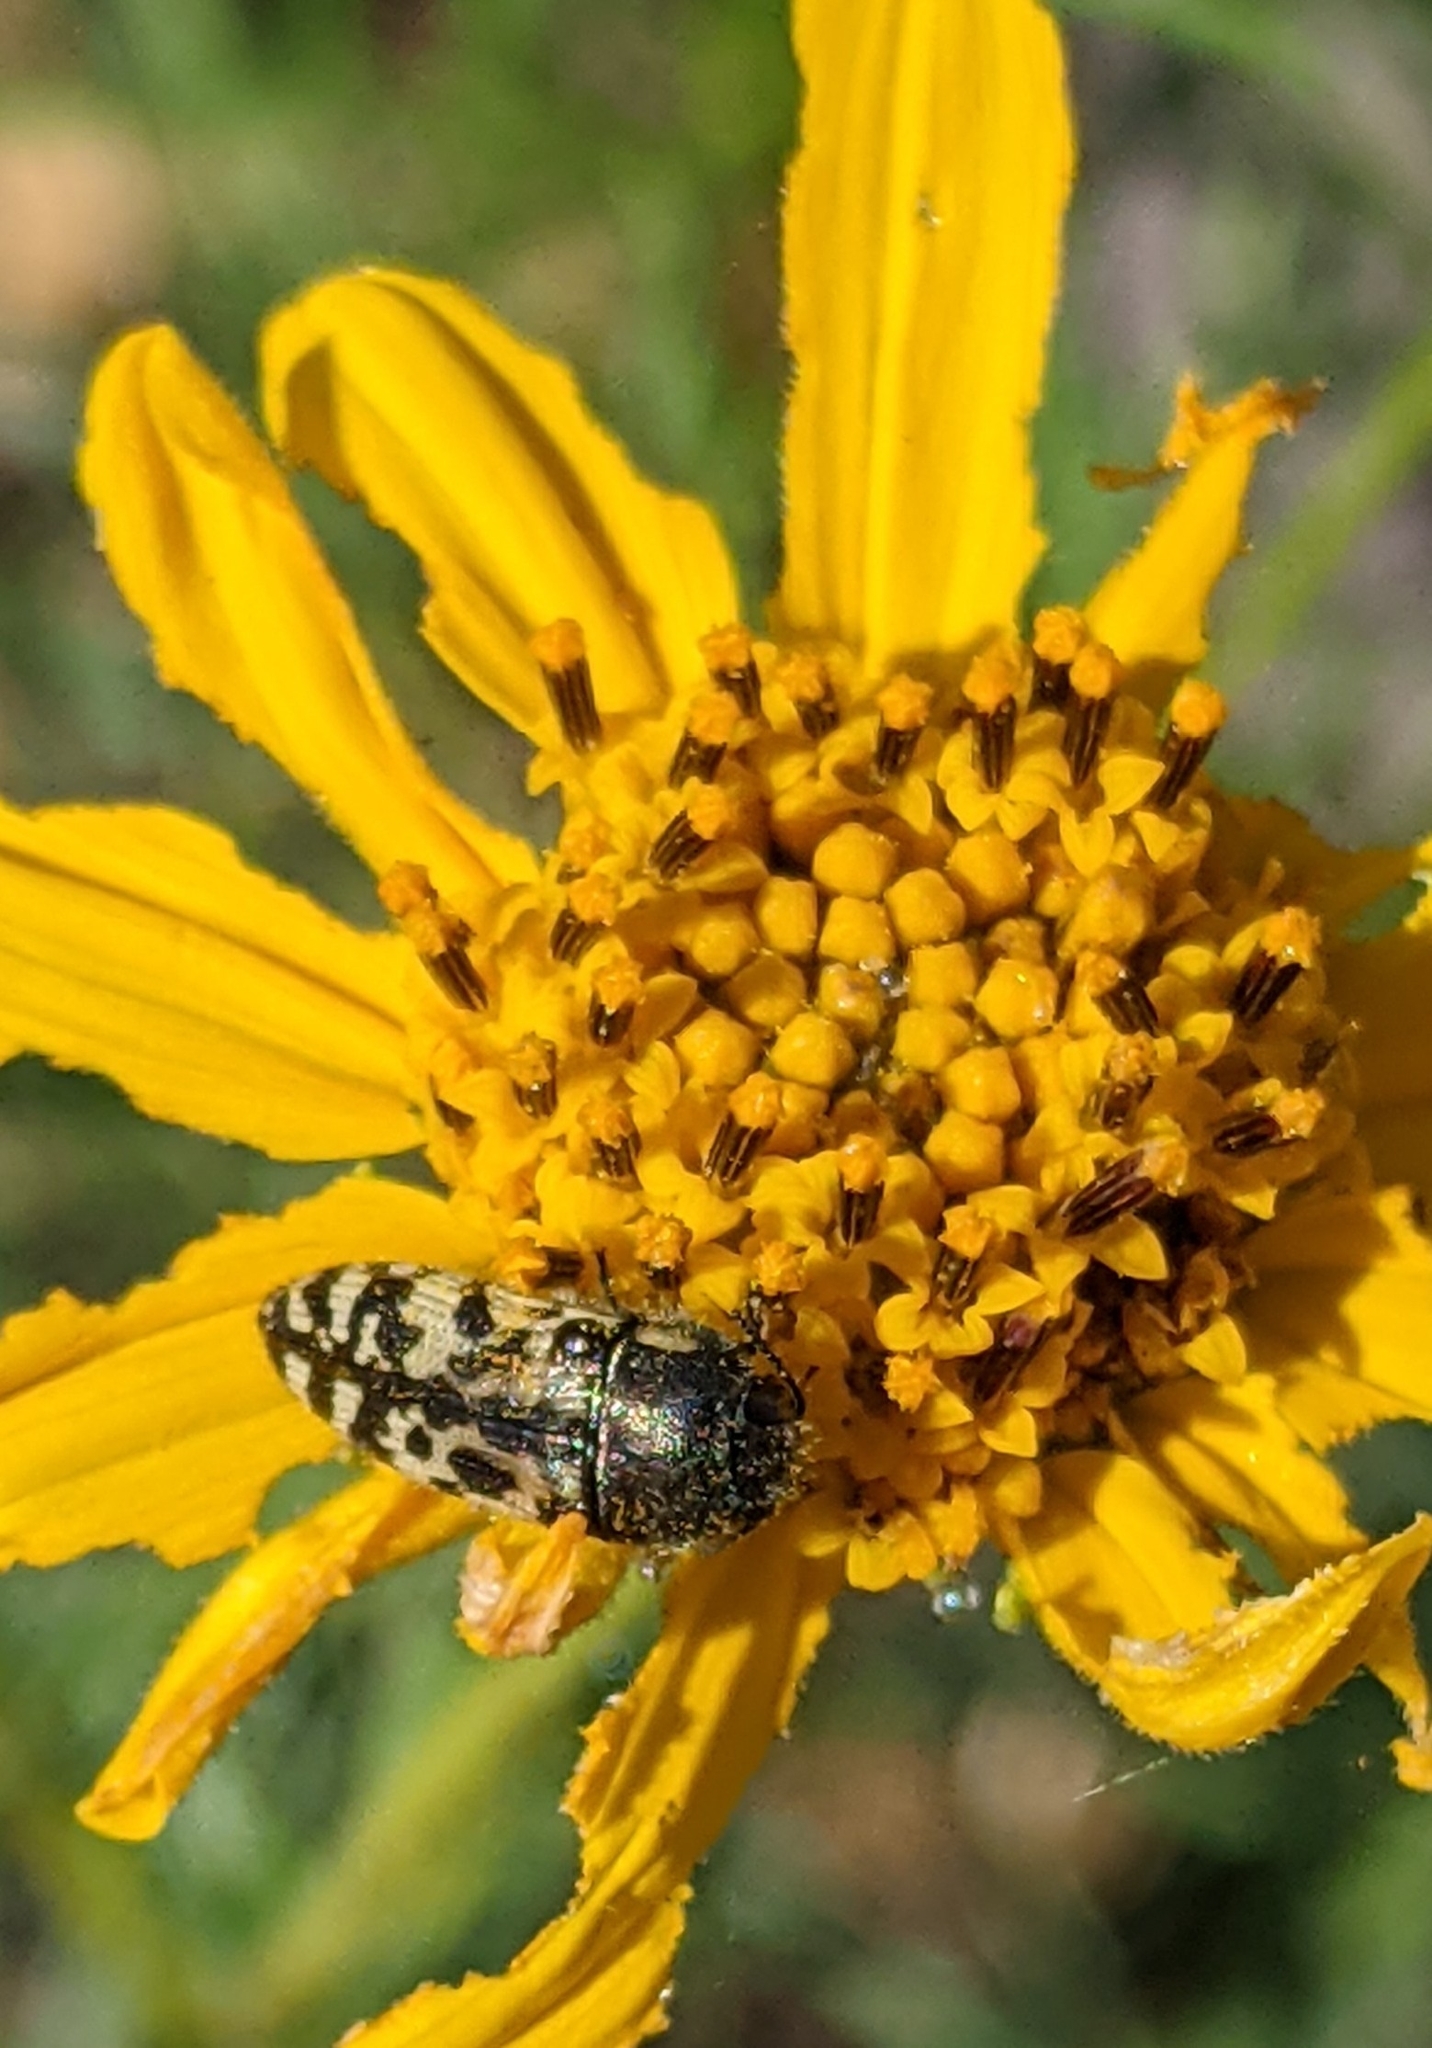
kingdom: Animalia
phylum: Arthropoda
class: Insecta
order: Coleoptera
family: Buprestidae
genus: Acmaeodera
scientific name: Acmaeodera mixta
